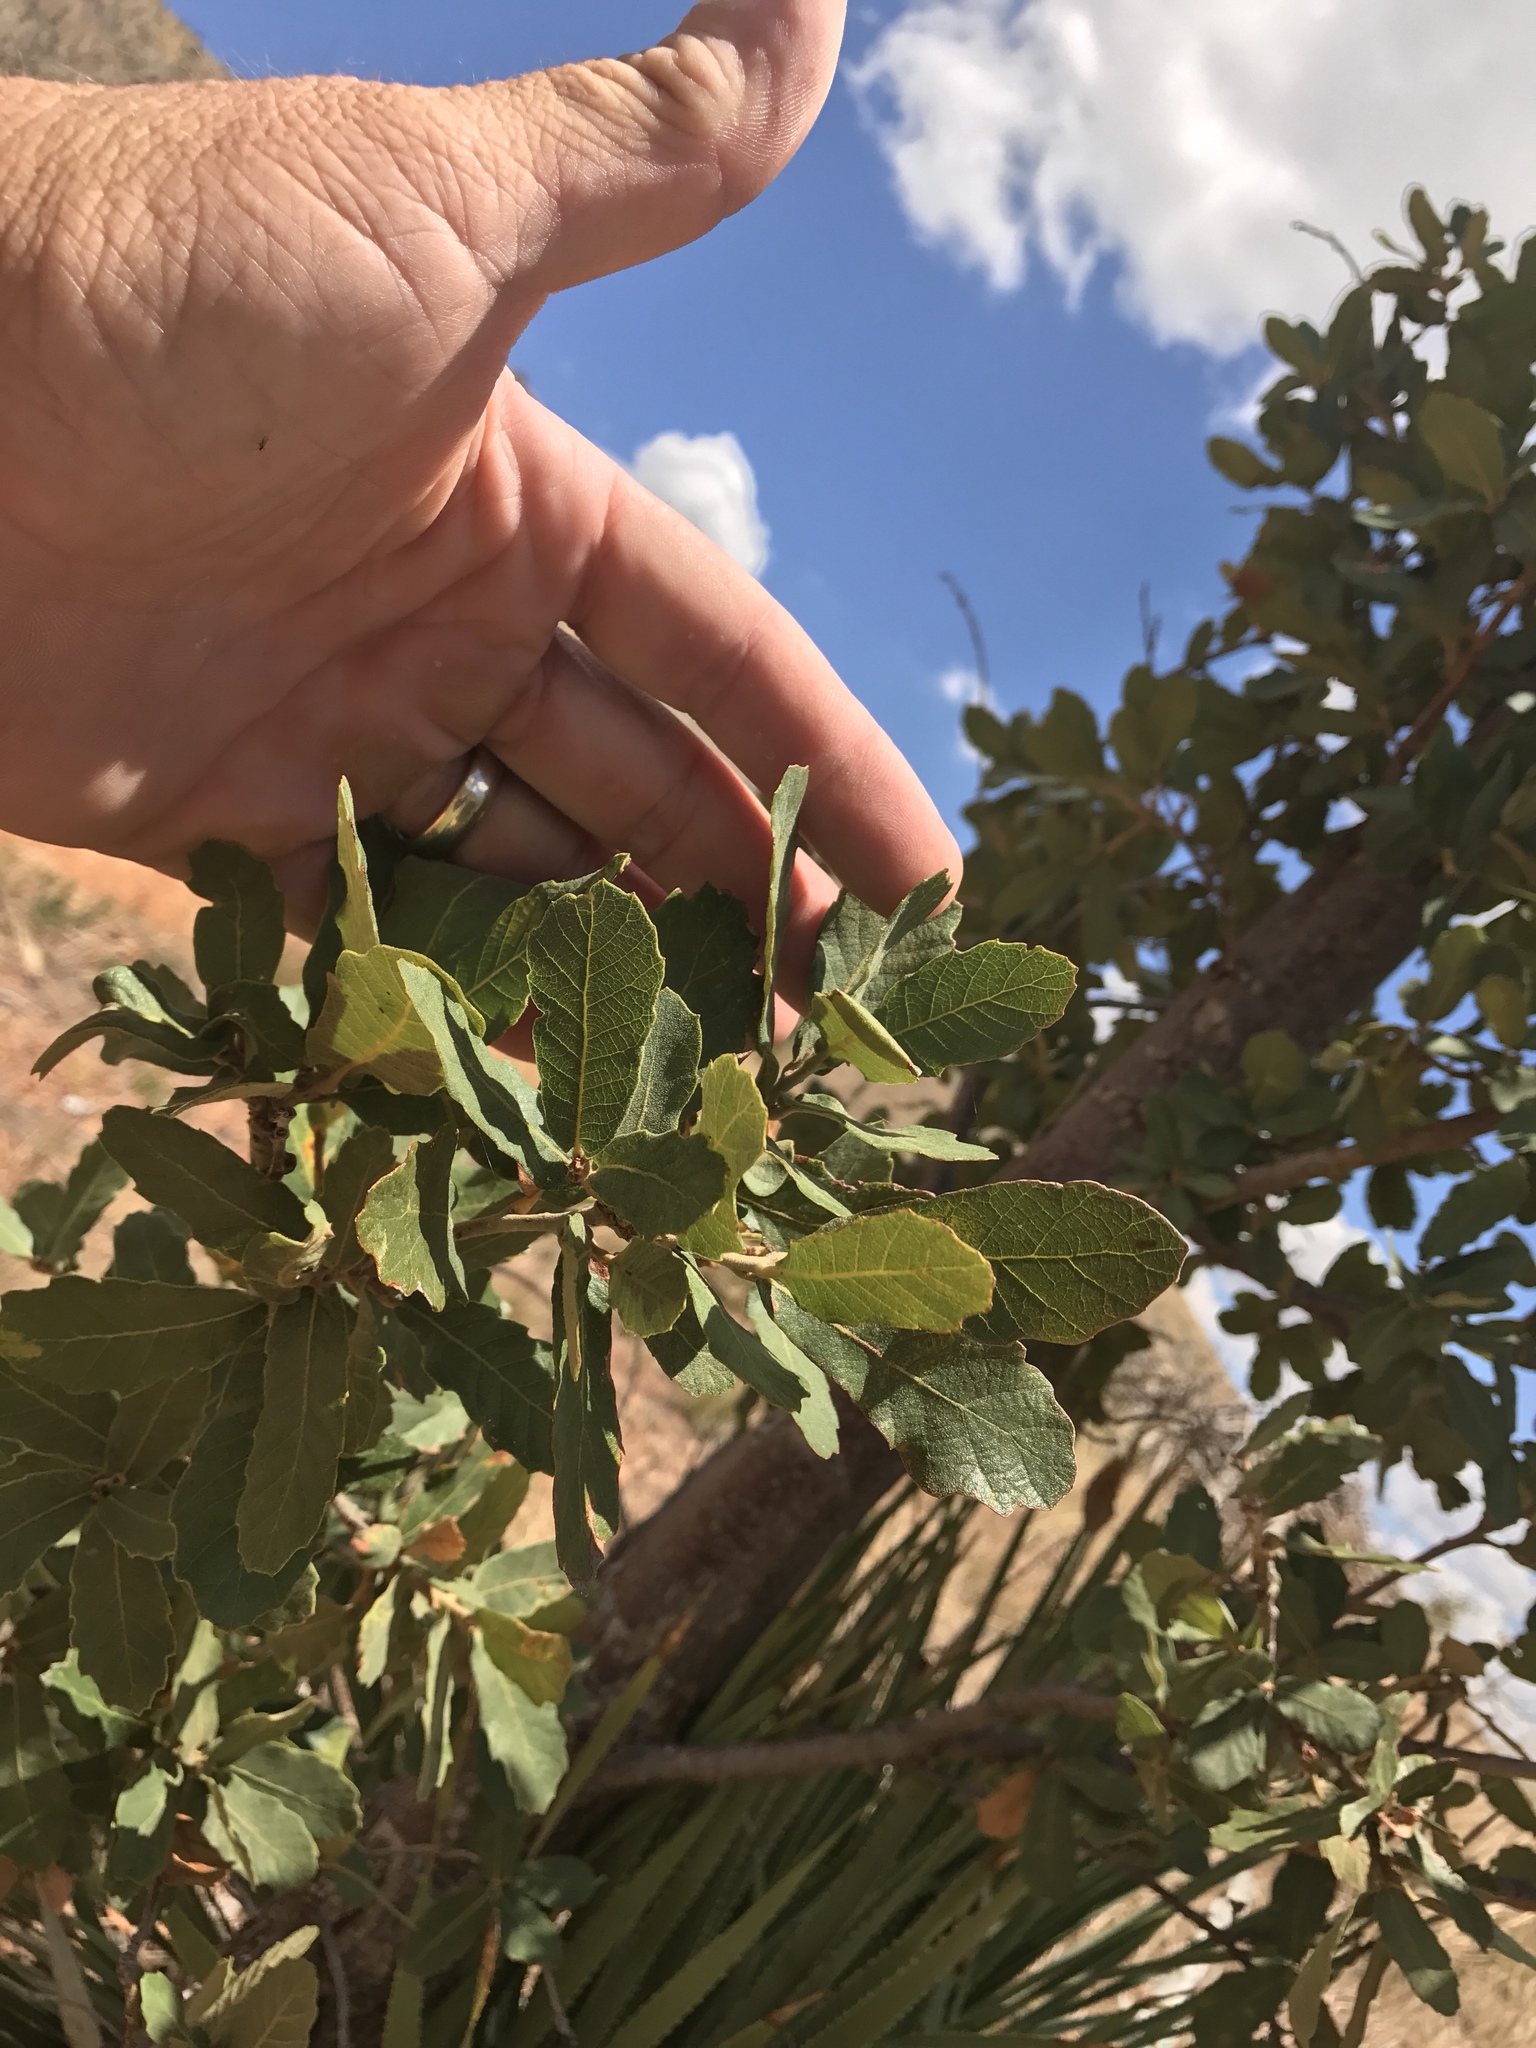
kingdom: Plantae
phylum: Tracheophyta
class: Magnoliopsida
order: Fagales
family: Fagaceae
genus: Quercus
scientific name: Quercus arizonica
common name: Arizona white oak
